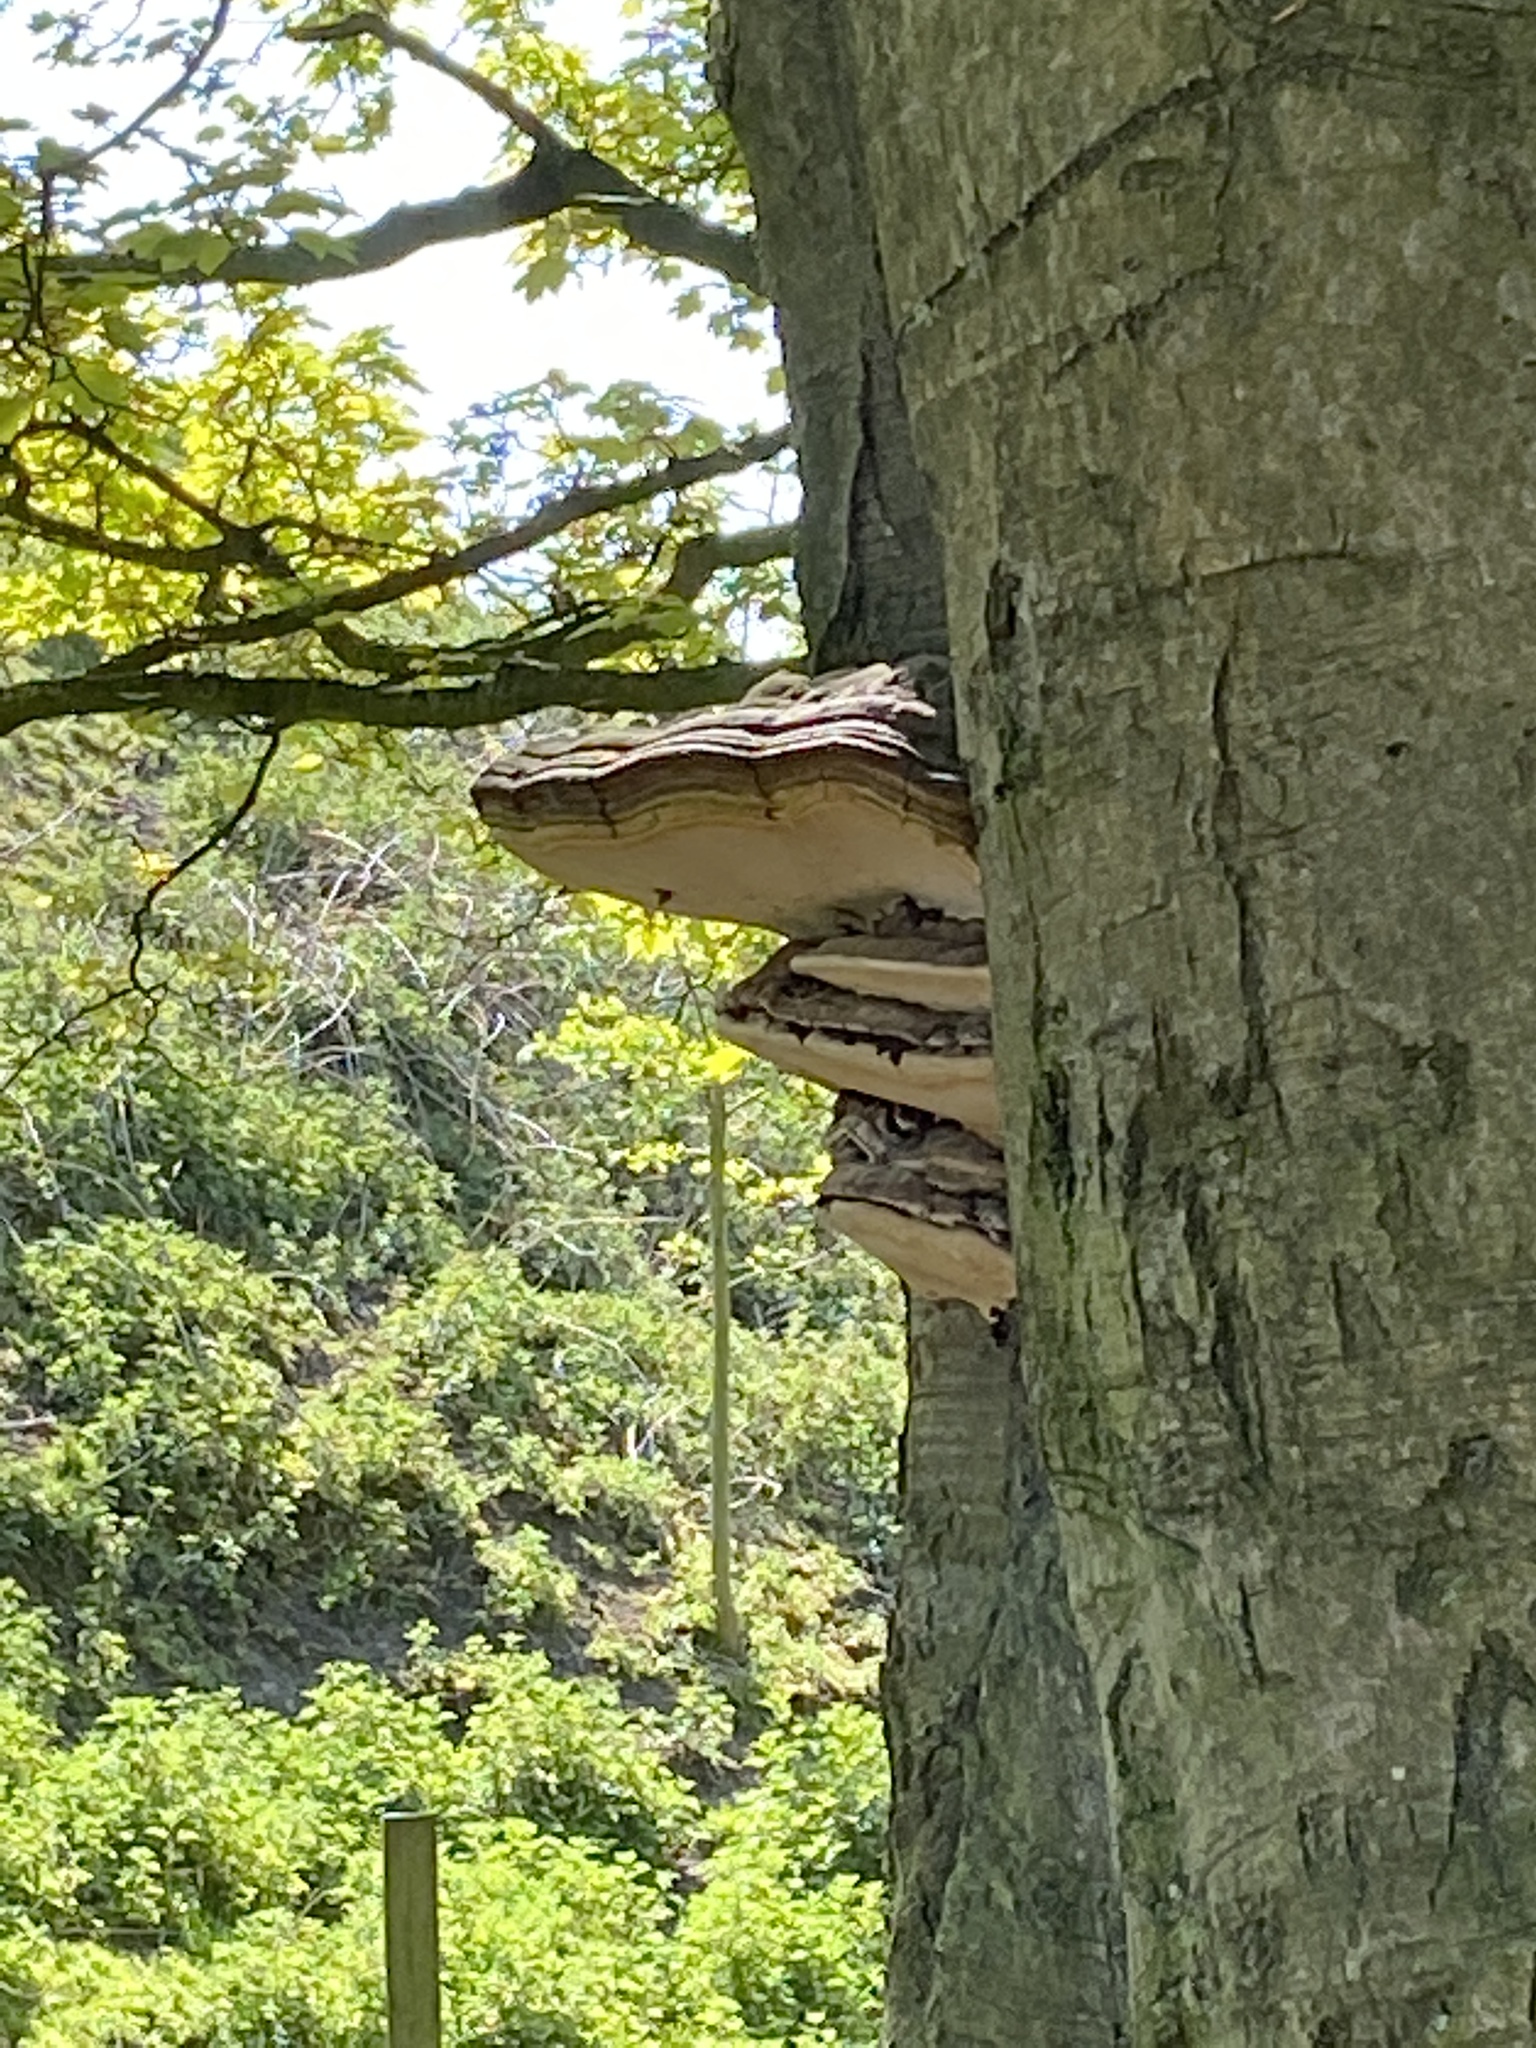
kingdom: Fungi
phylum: Basidiomycota
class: Agaricomycetes
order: Polyporales
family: Polyporaceae
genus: Ganoderma
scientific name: Ganoderma applanatum
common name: Artist's bracket
